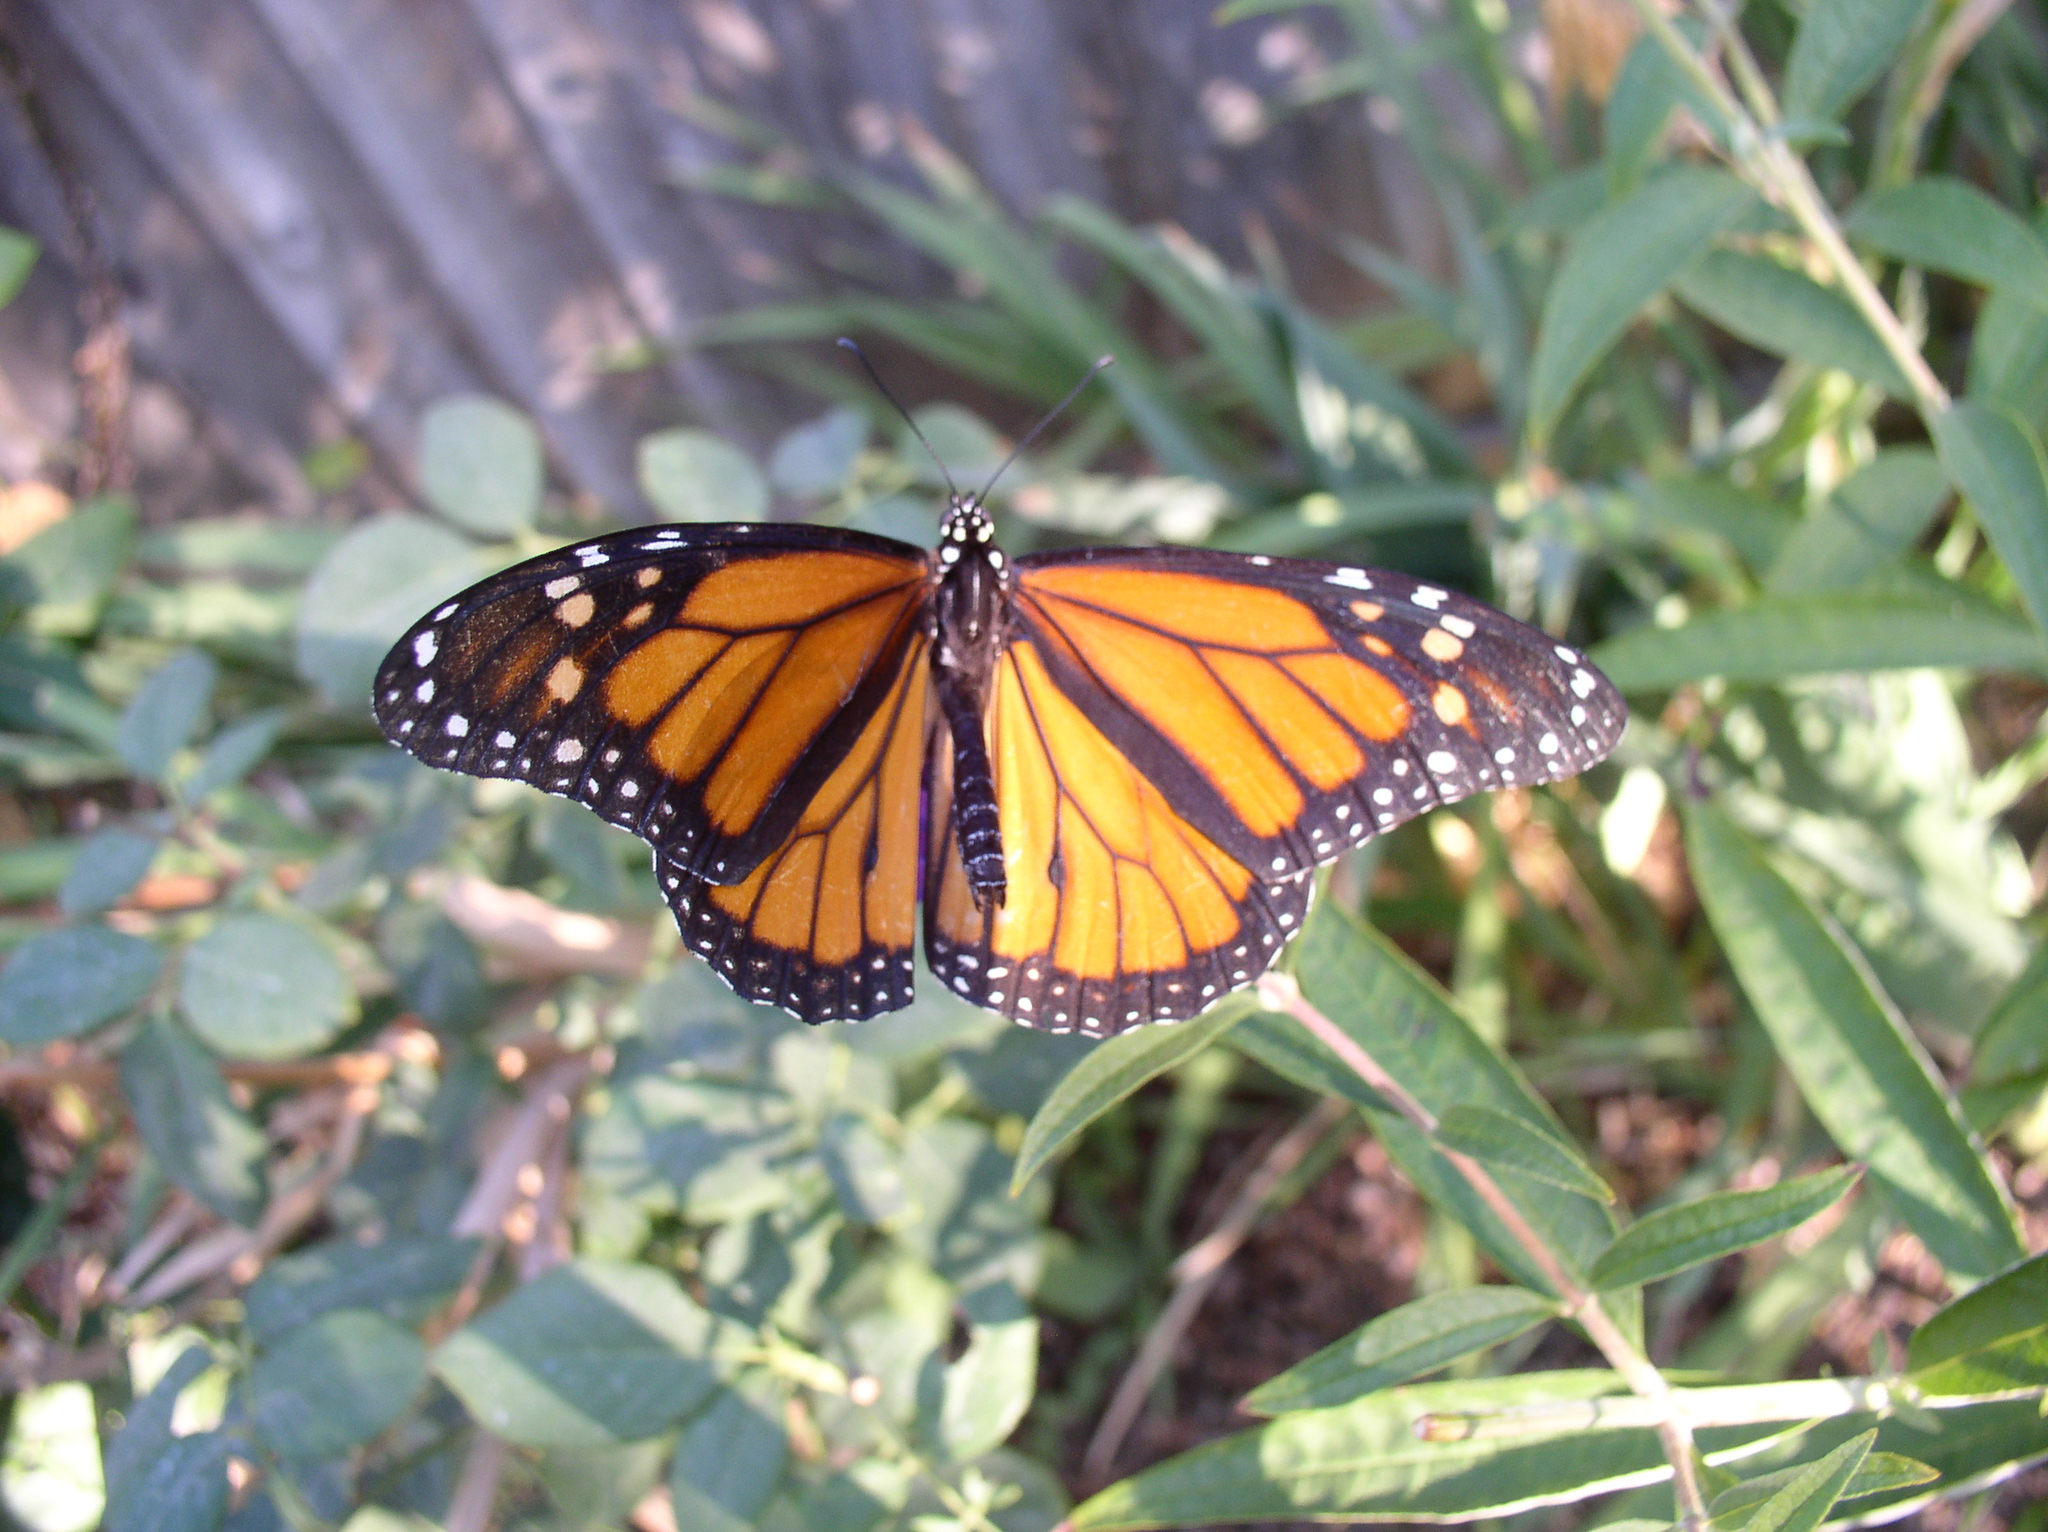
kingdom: Animalia
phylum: Arthropoda
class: Insecta
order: Lepidoptera
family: Nymphalidae
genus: Danaus
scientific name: Danaus plexippus
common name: Monarch
